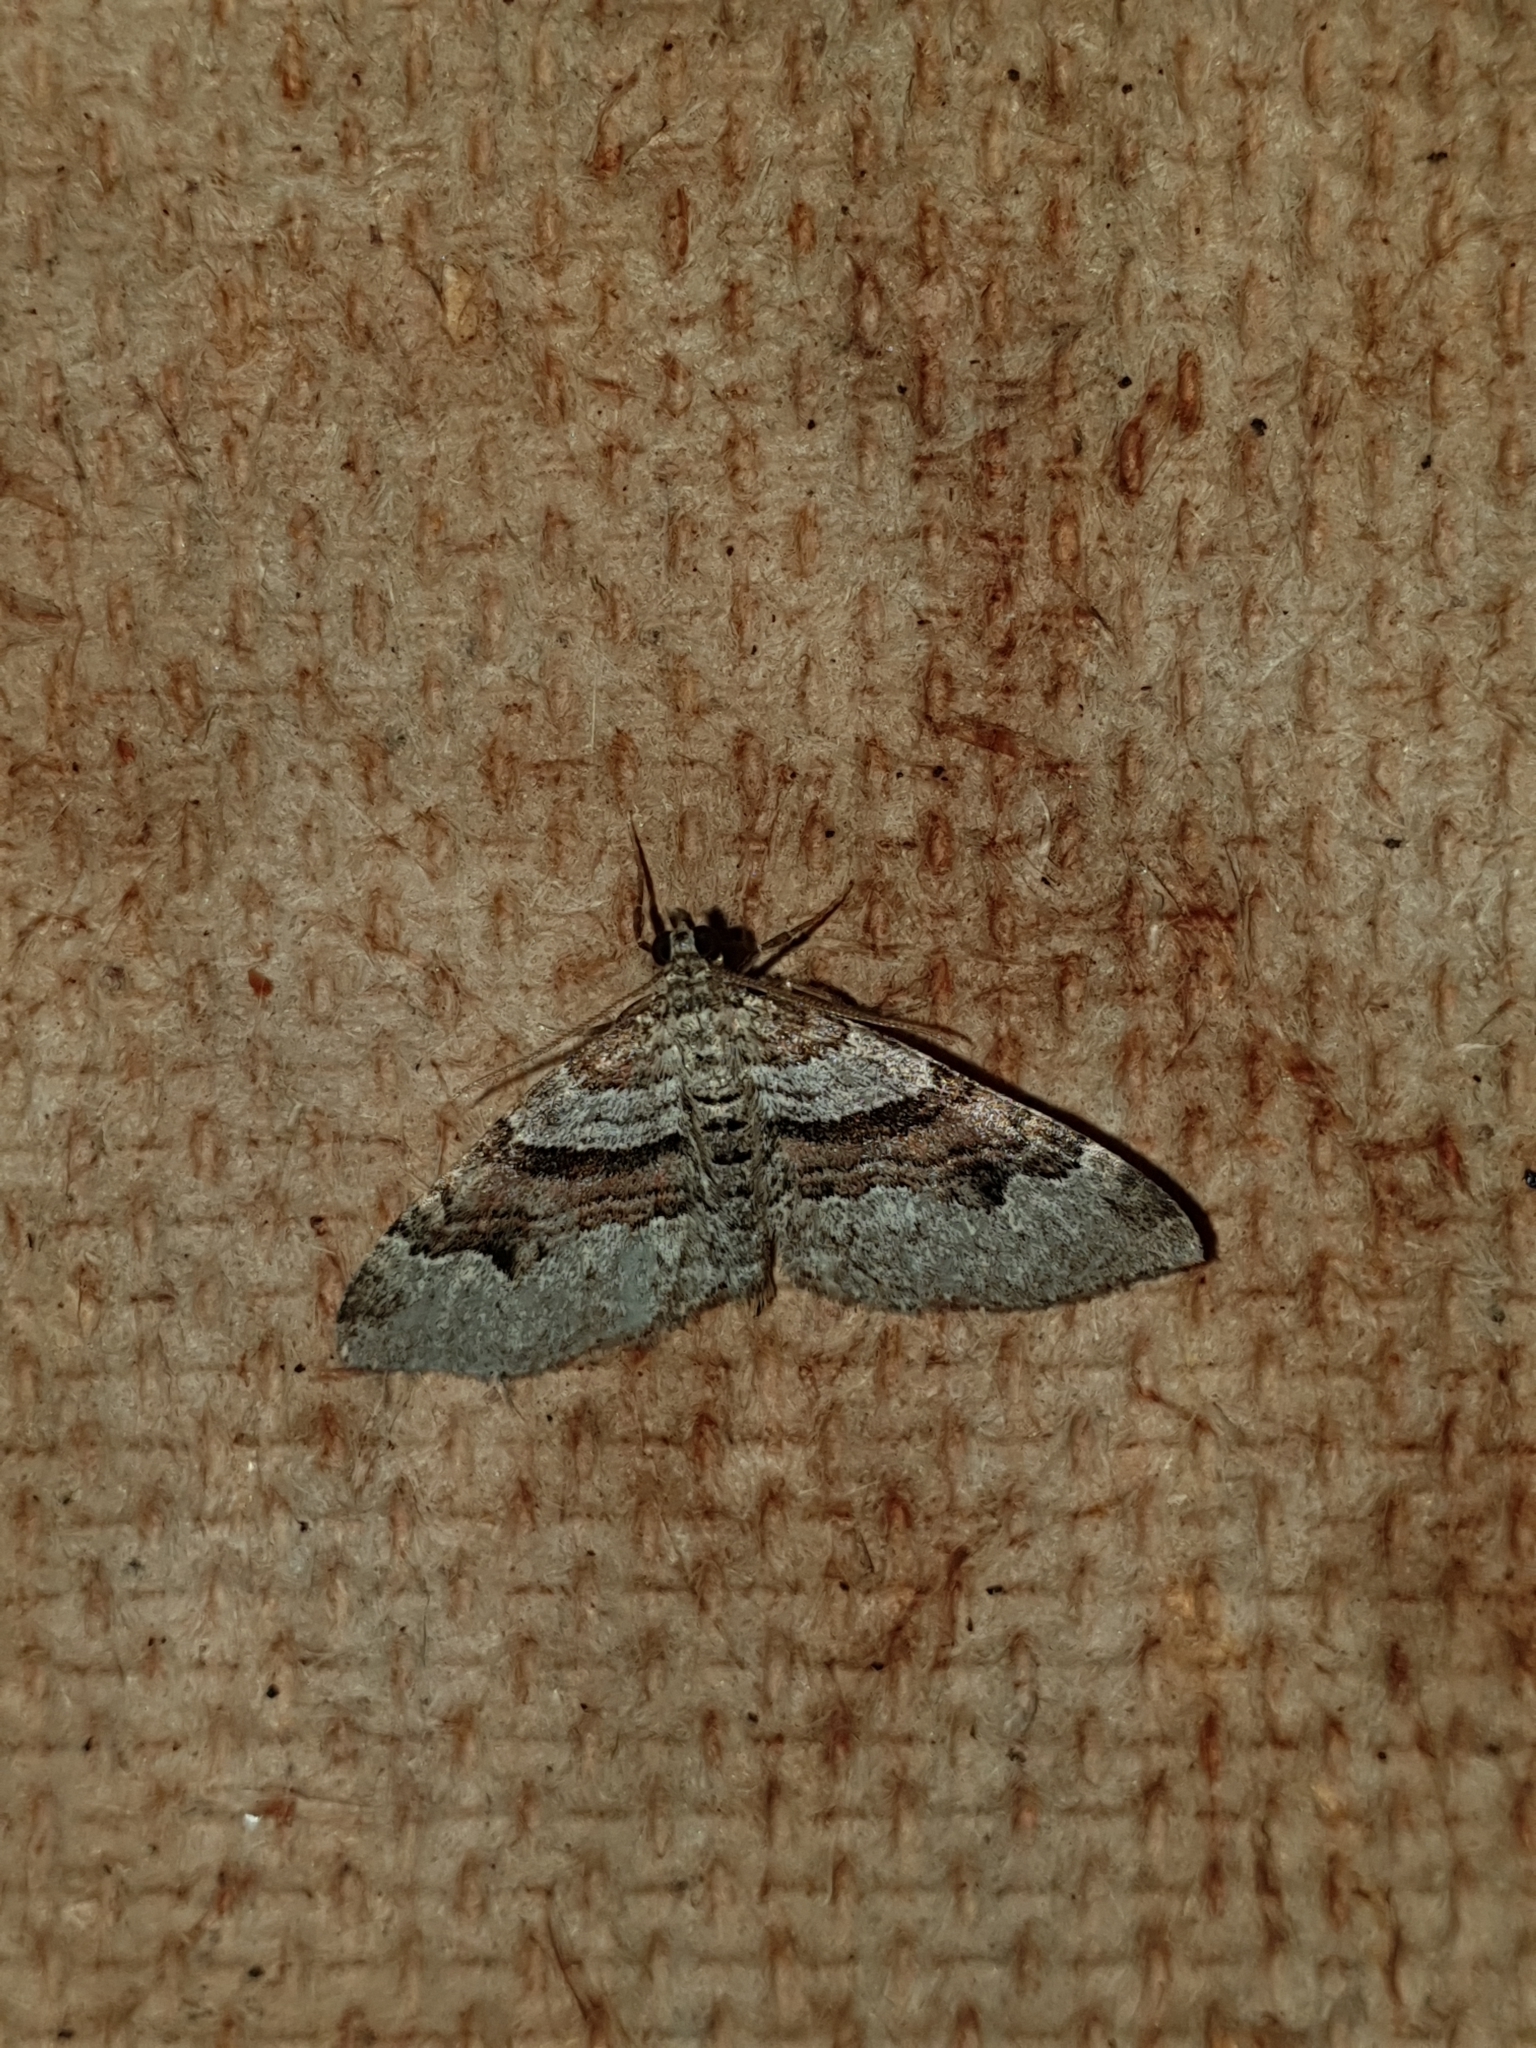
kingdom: Animalia
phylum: Arthropoda
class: Insecta
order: Lepidoptera
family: Geometridae
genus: Xanthorhoe
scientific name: Xanthorhoe designata
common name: Flame carpet
